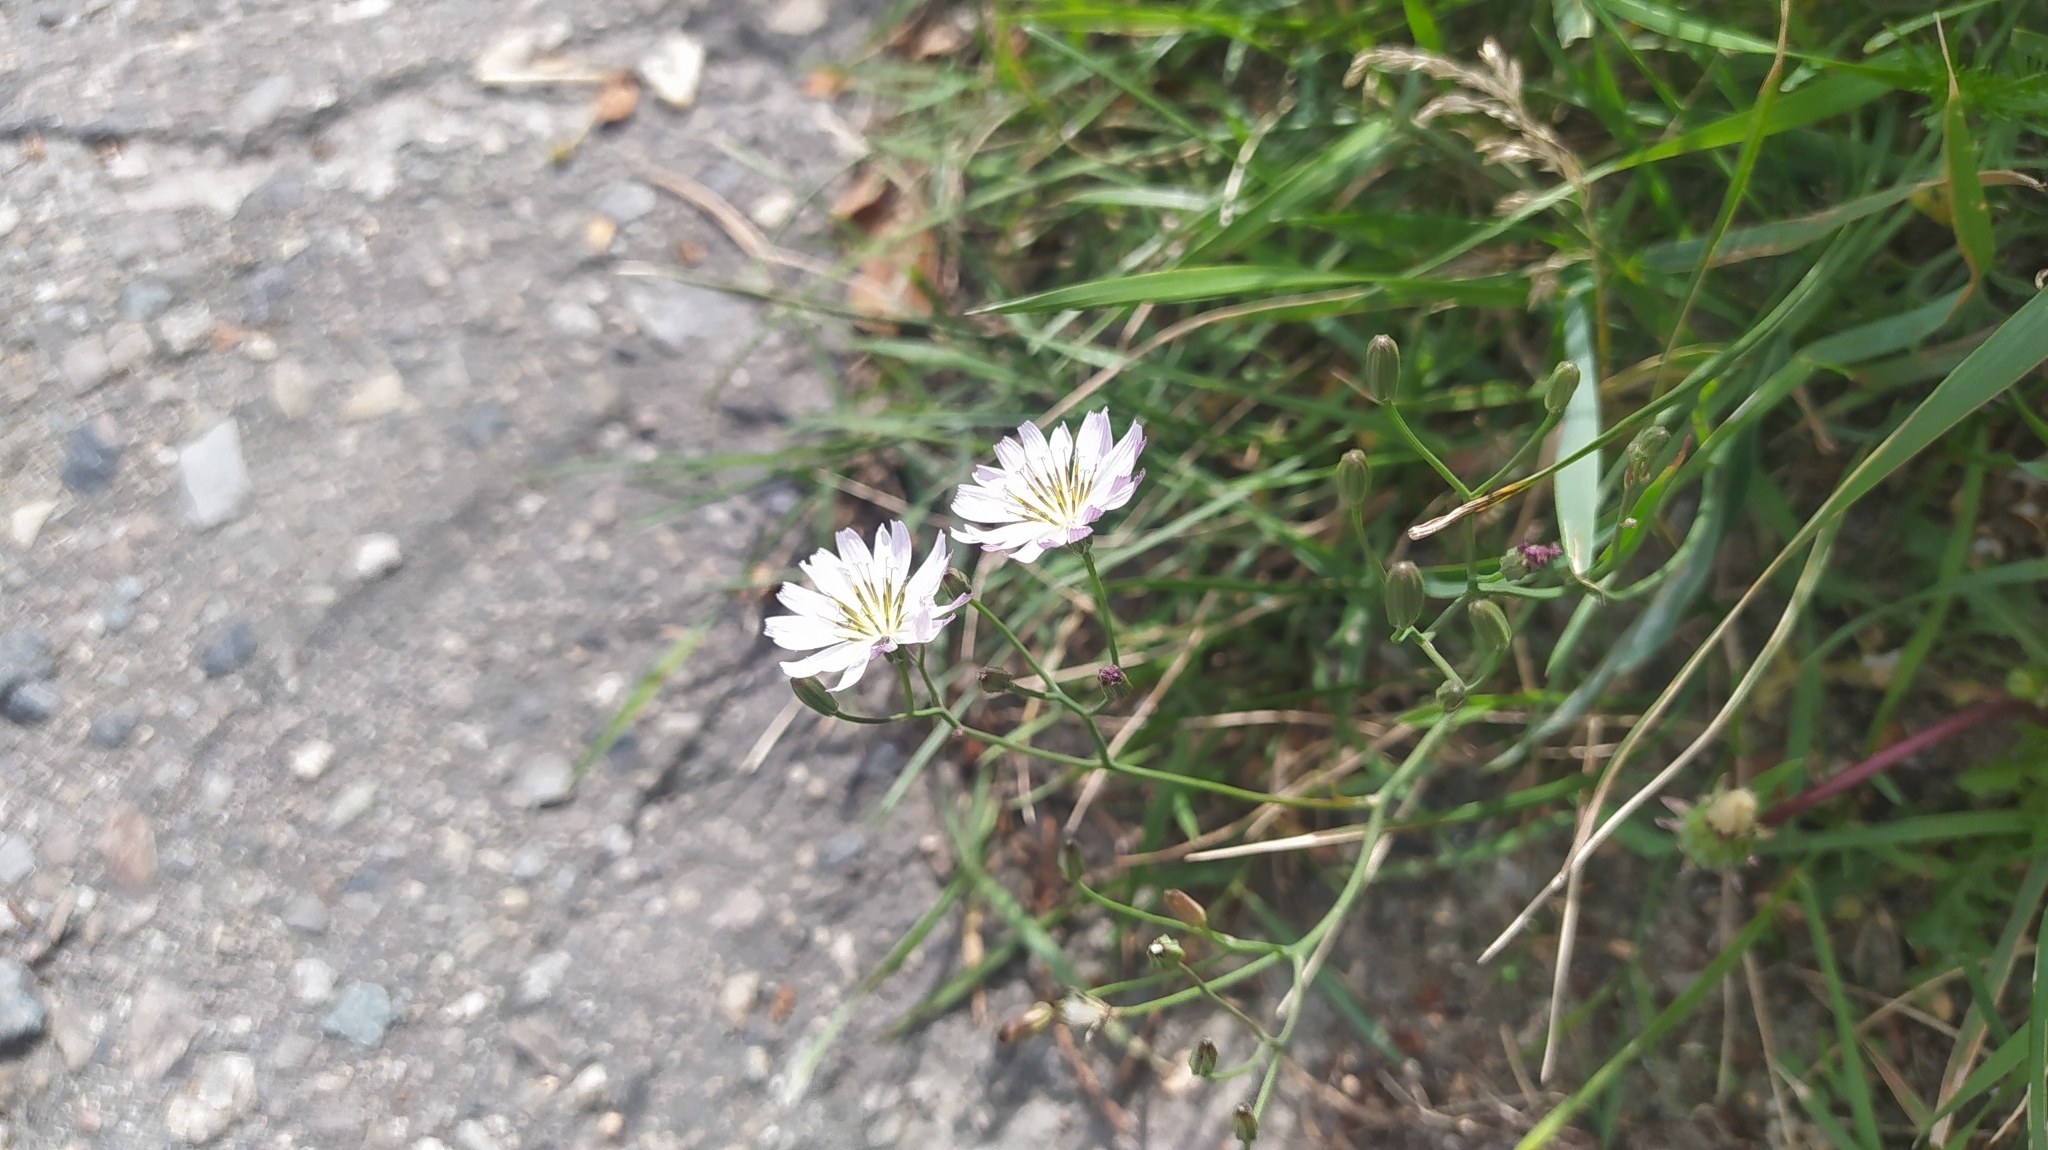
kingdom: Plantae
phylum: Tracheophyta
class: Magnoliopsida
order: Asterales
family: Asteraceae
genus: Ixeris
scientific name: Ixeris chinensis
